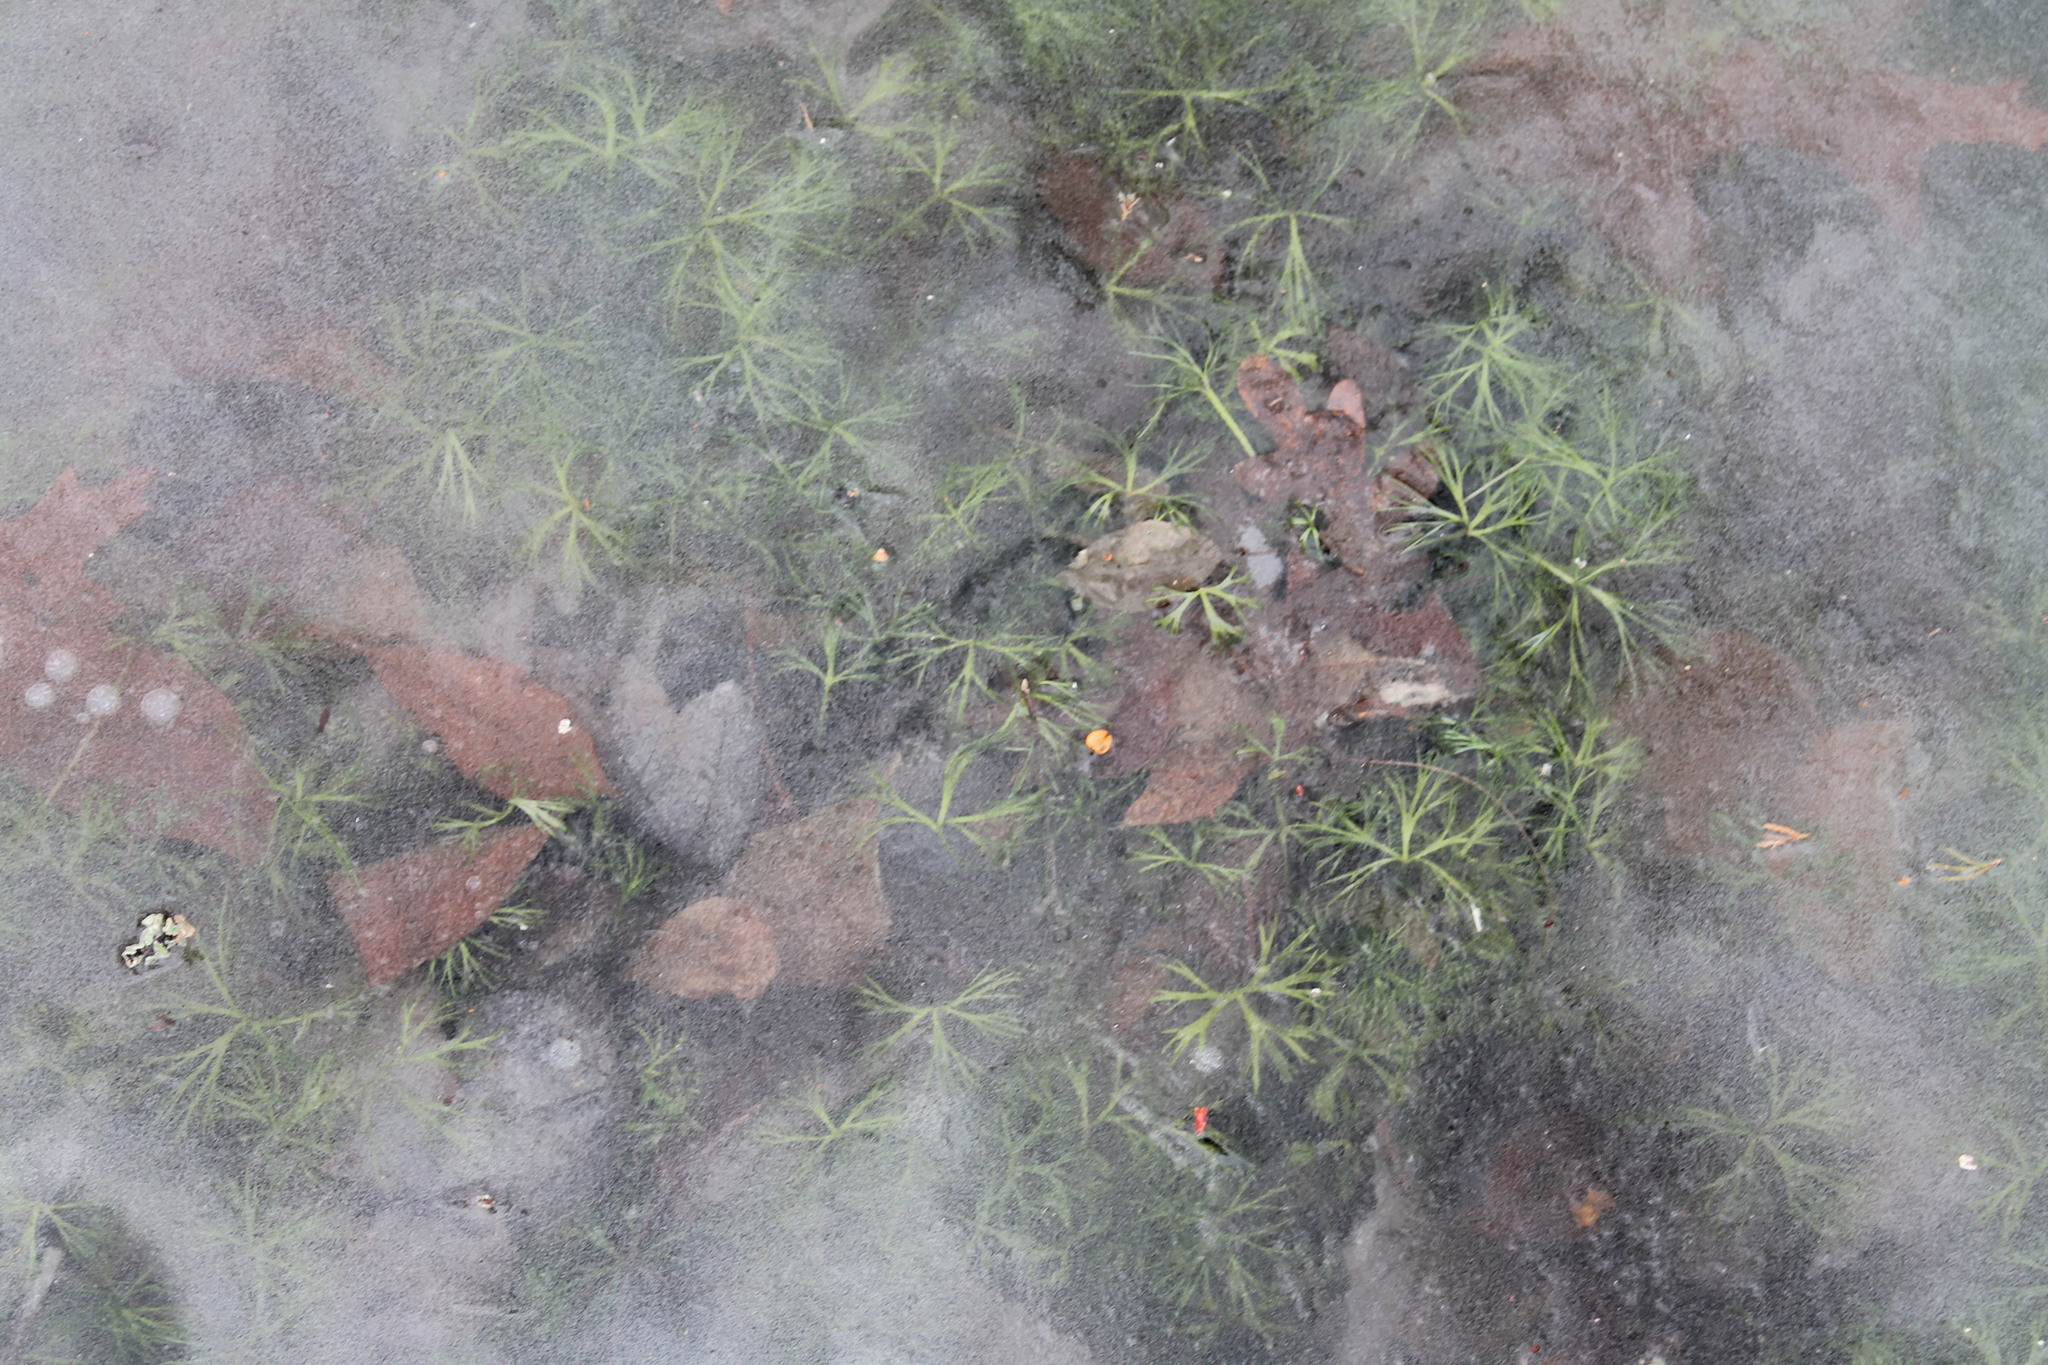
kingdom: Plantae
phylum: Tracheophyta
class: Magnoliopsida
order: Ranunculales
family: Ranunculaceae
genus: Ranunculus
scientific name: Ranunculus flabellaris
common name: Yellow water-crowfoot
